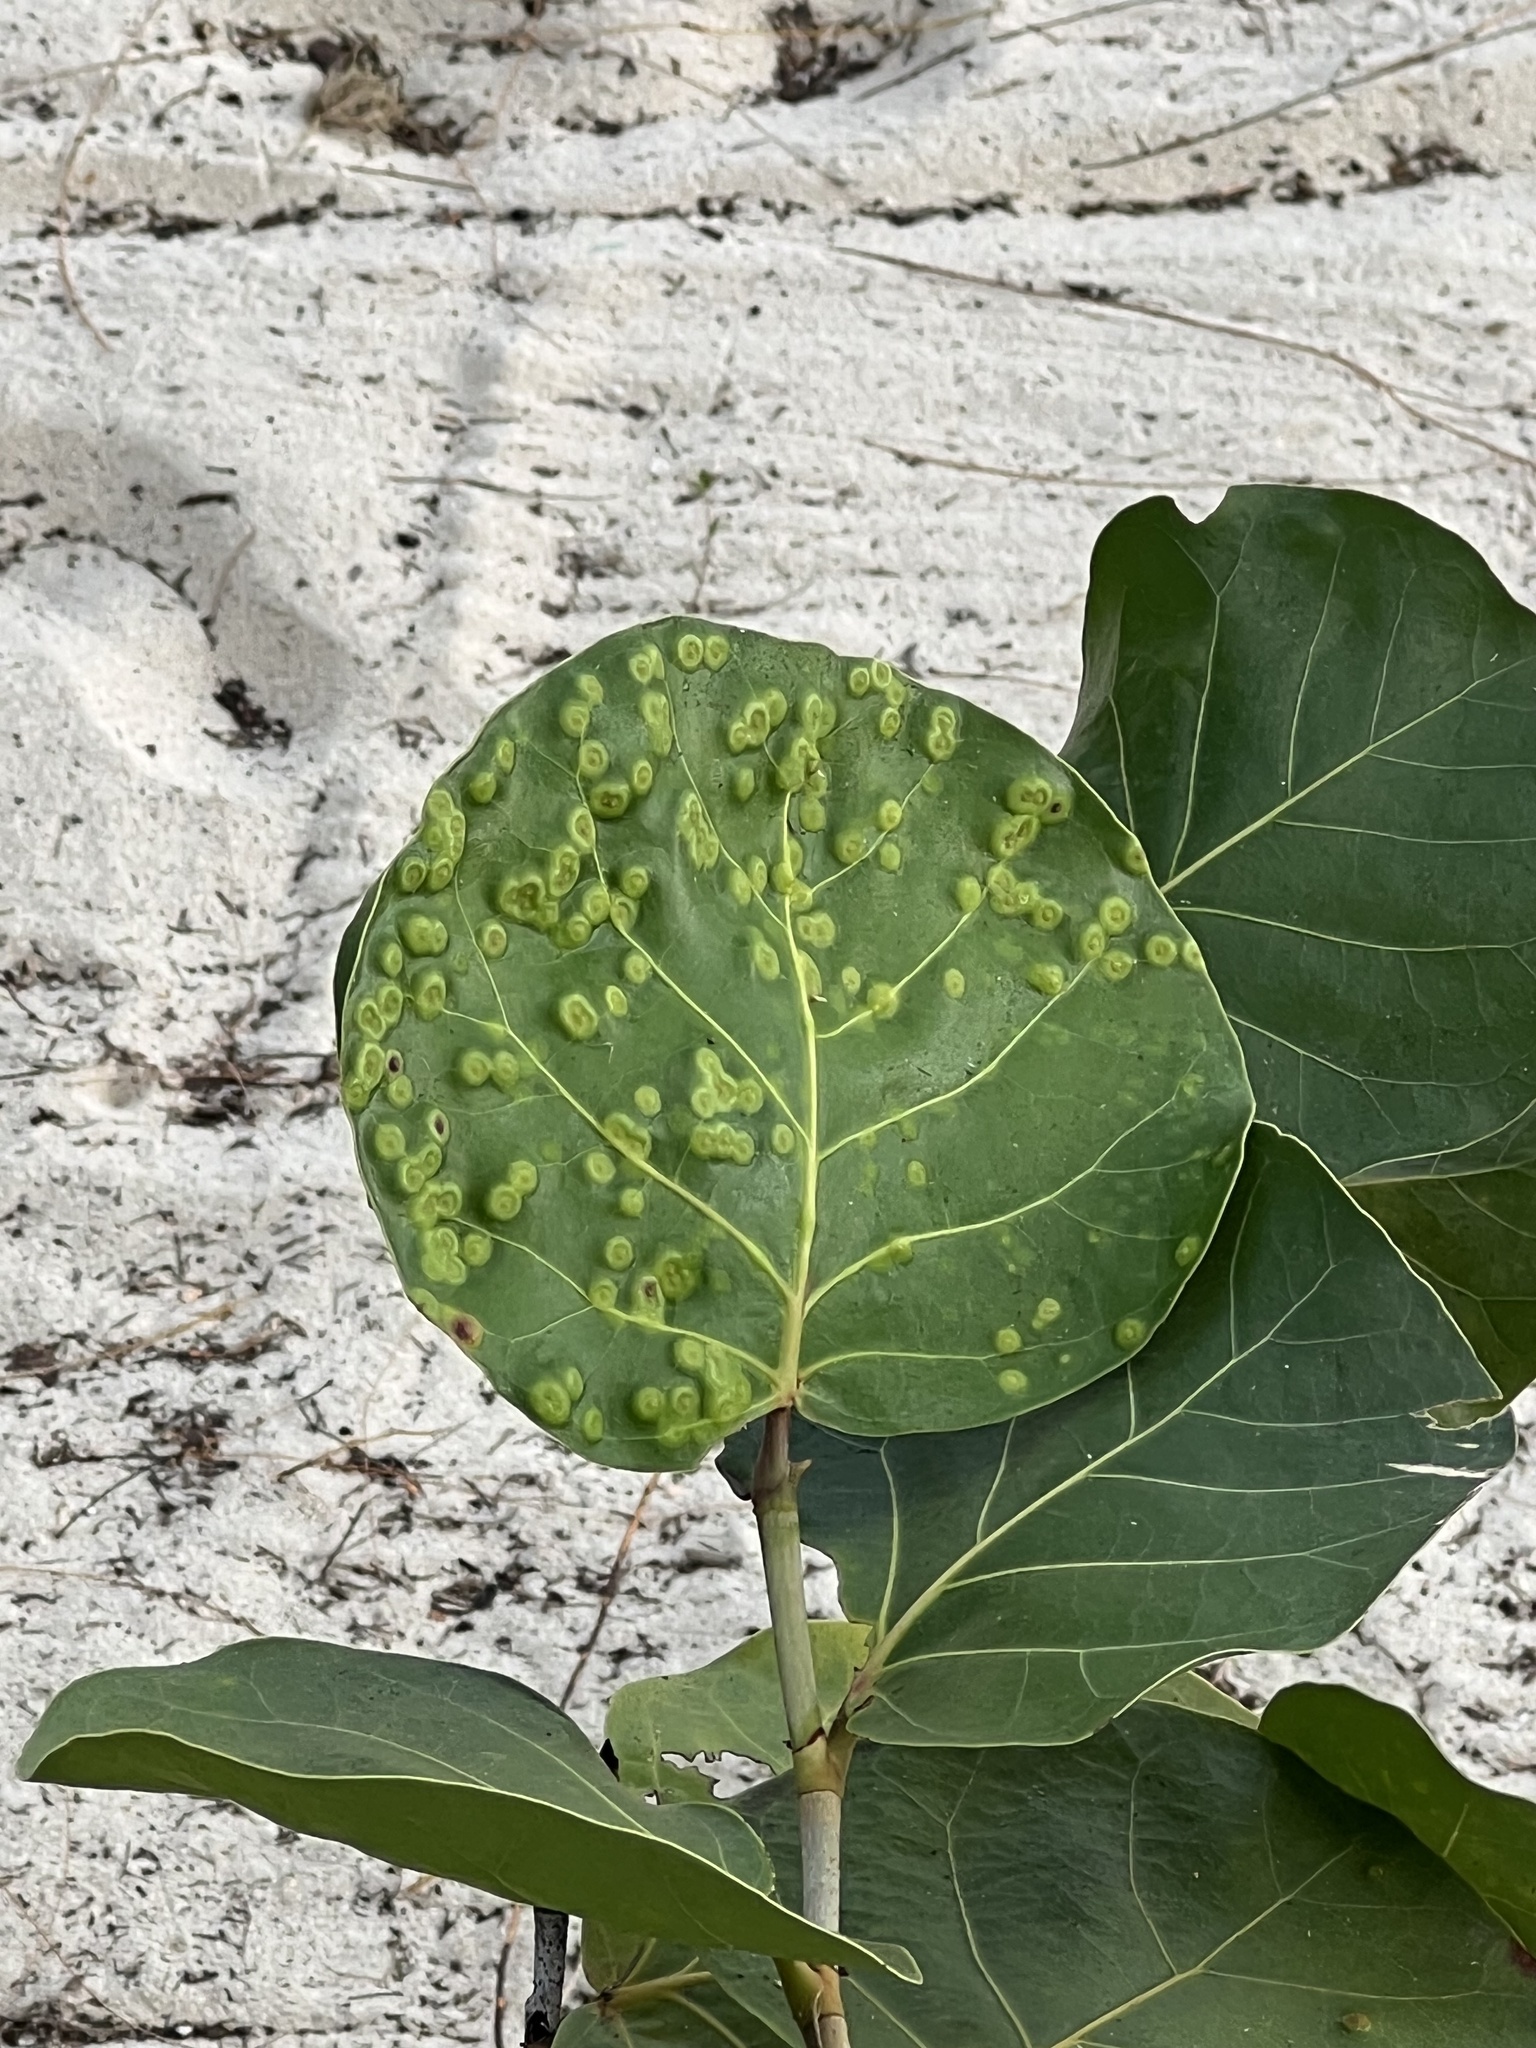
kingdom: Animalia
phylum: Arthropoda
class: Insecta
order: Diptera
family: Cecidomyiidae
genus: Ctenodactylomyia
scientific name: Ctenodactylomyia watsoni
